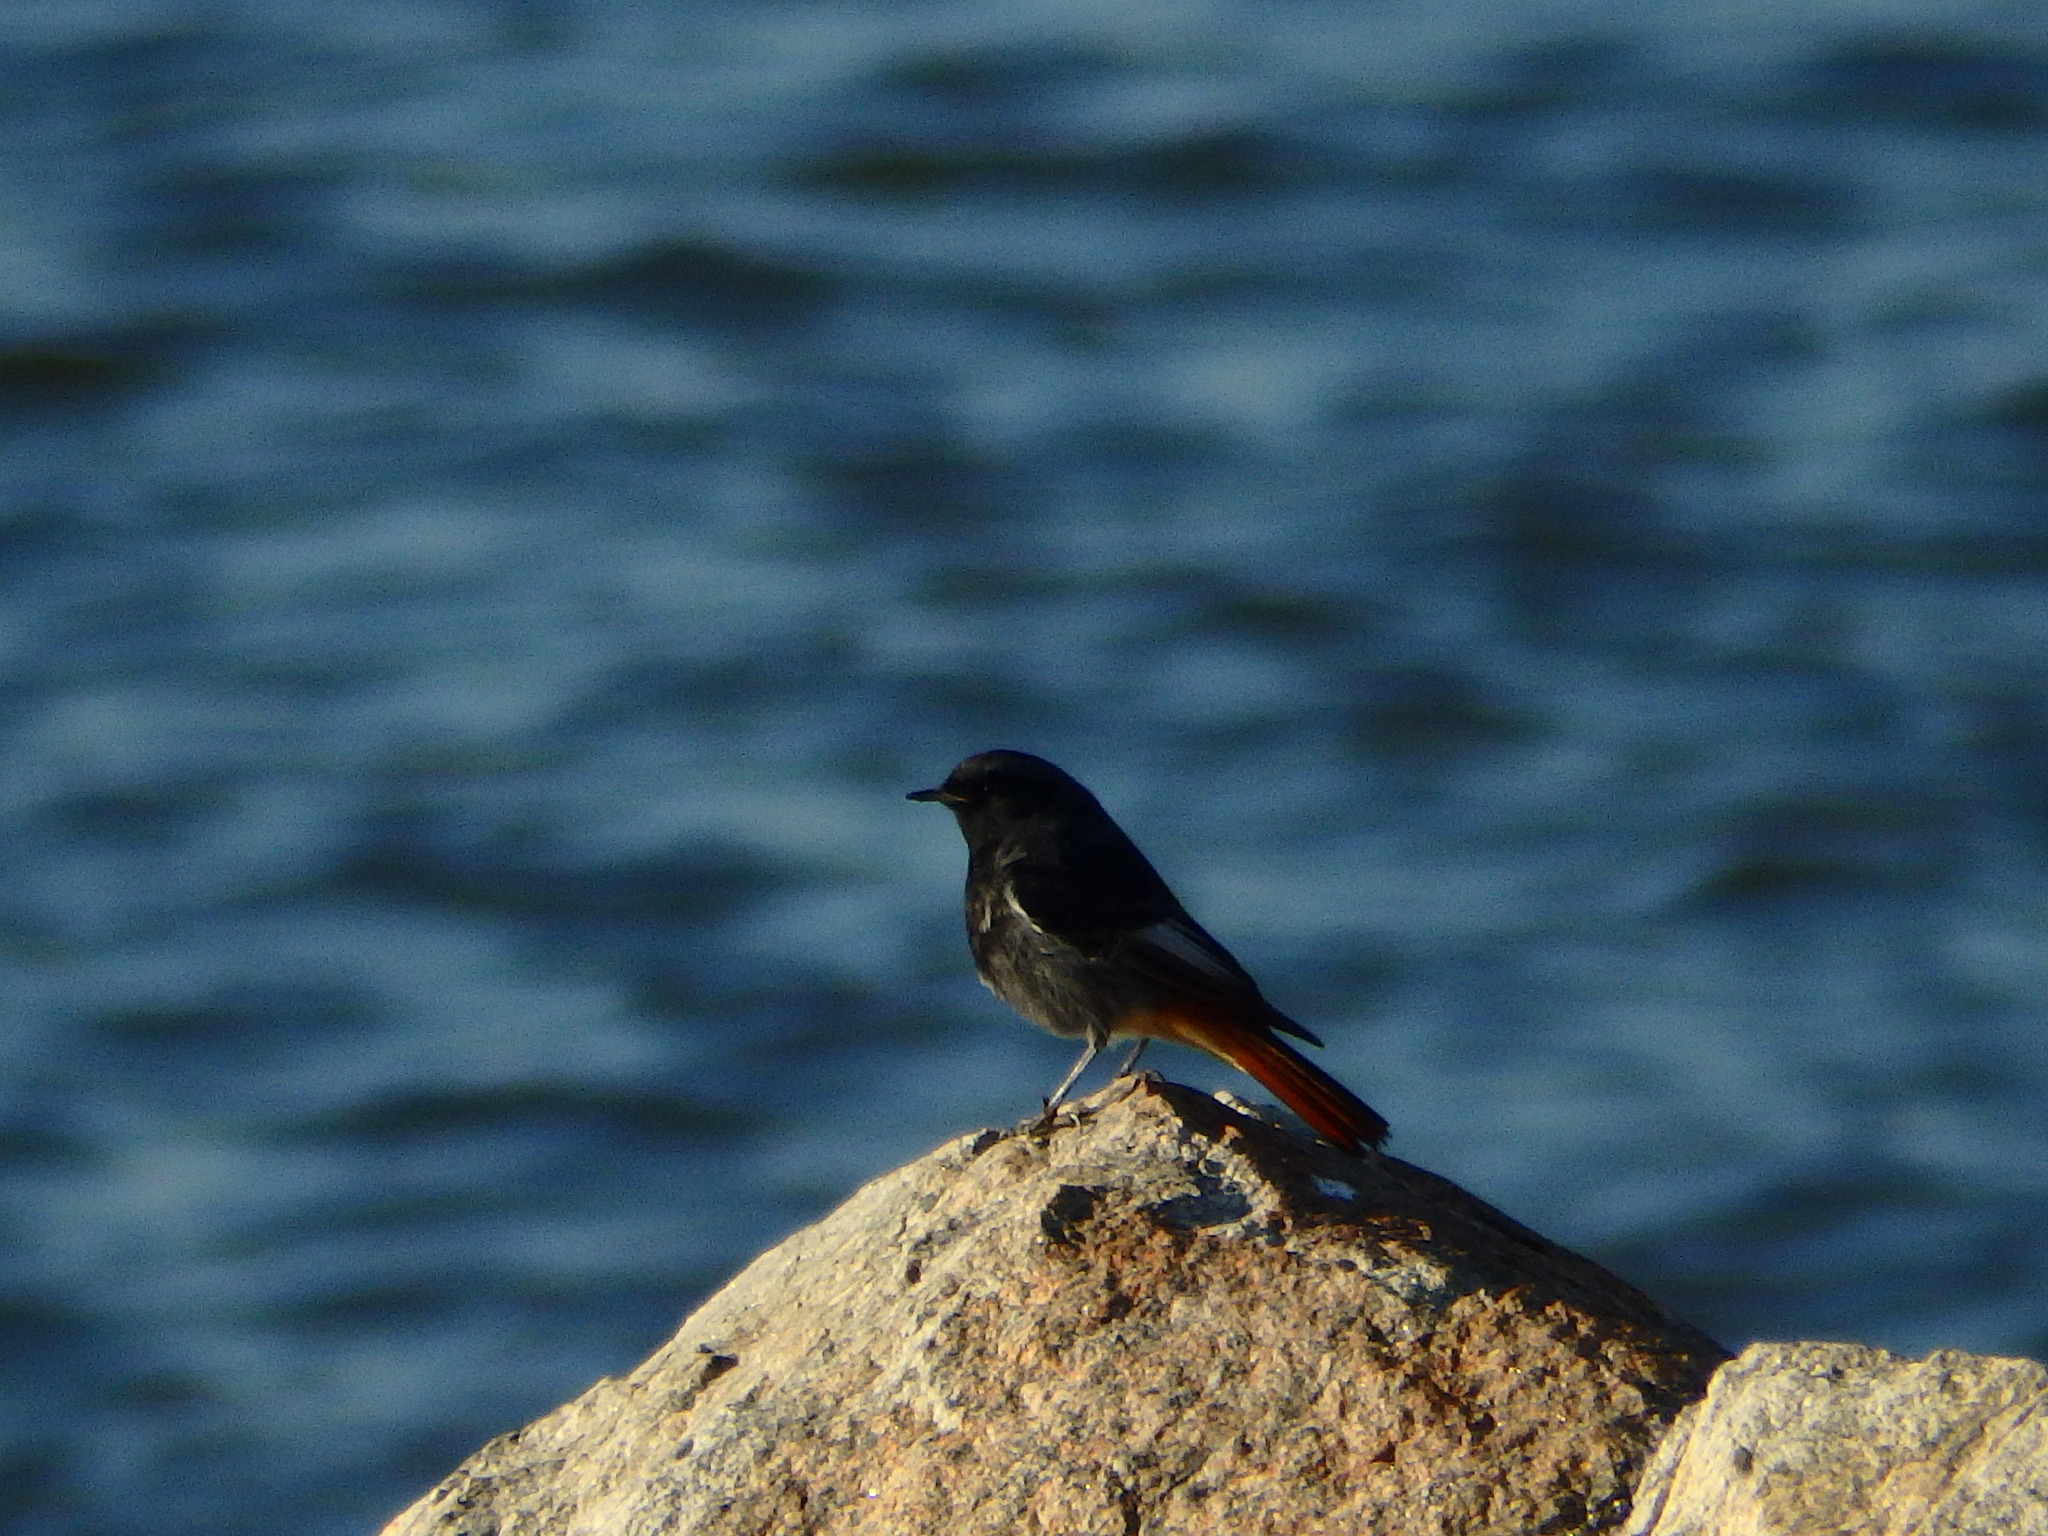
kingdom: Animalia
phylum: Chordata
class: Aves
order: Passeriformes
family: Muscicapidae
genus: Phoenicurus
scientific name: Phoenicurus ochruros
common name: Black redstart
